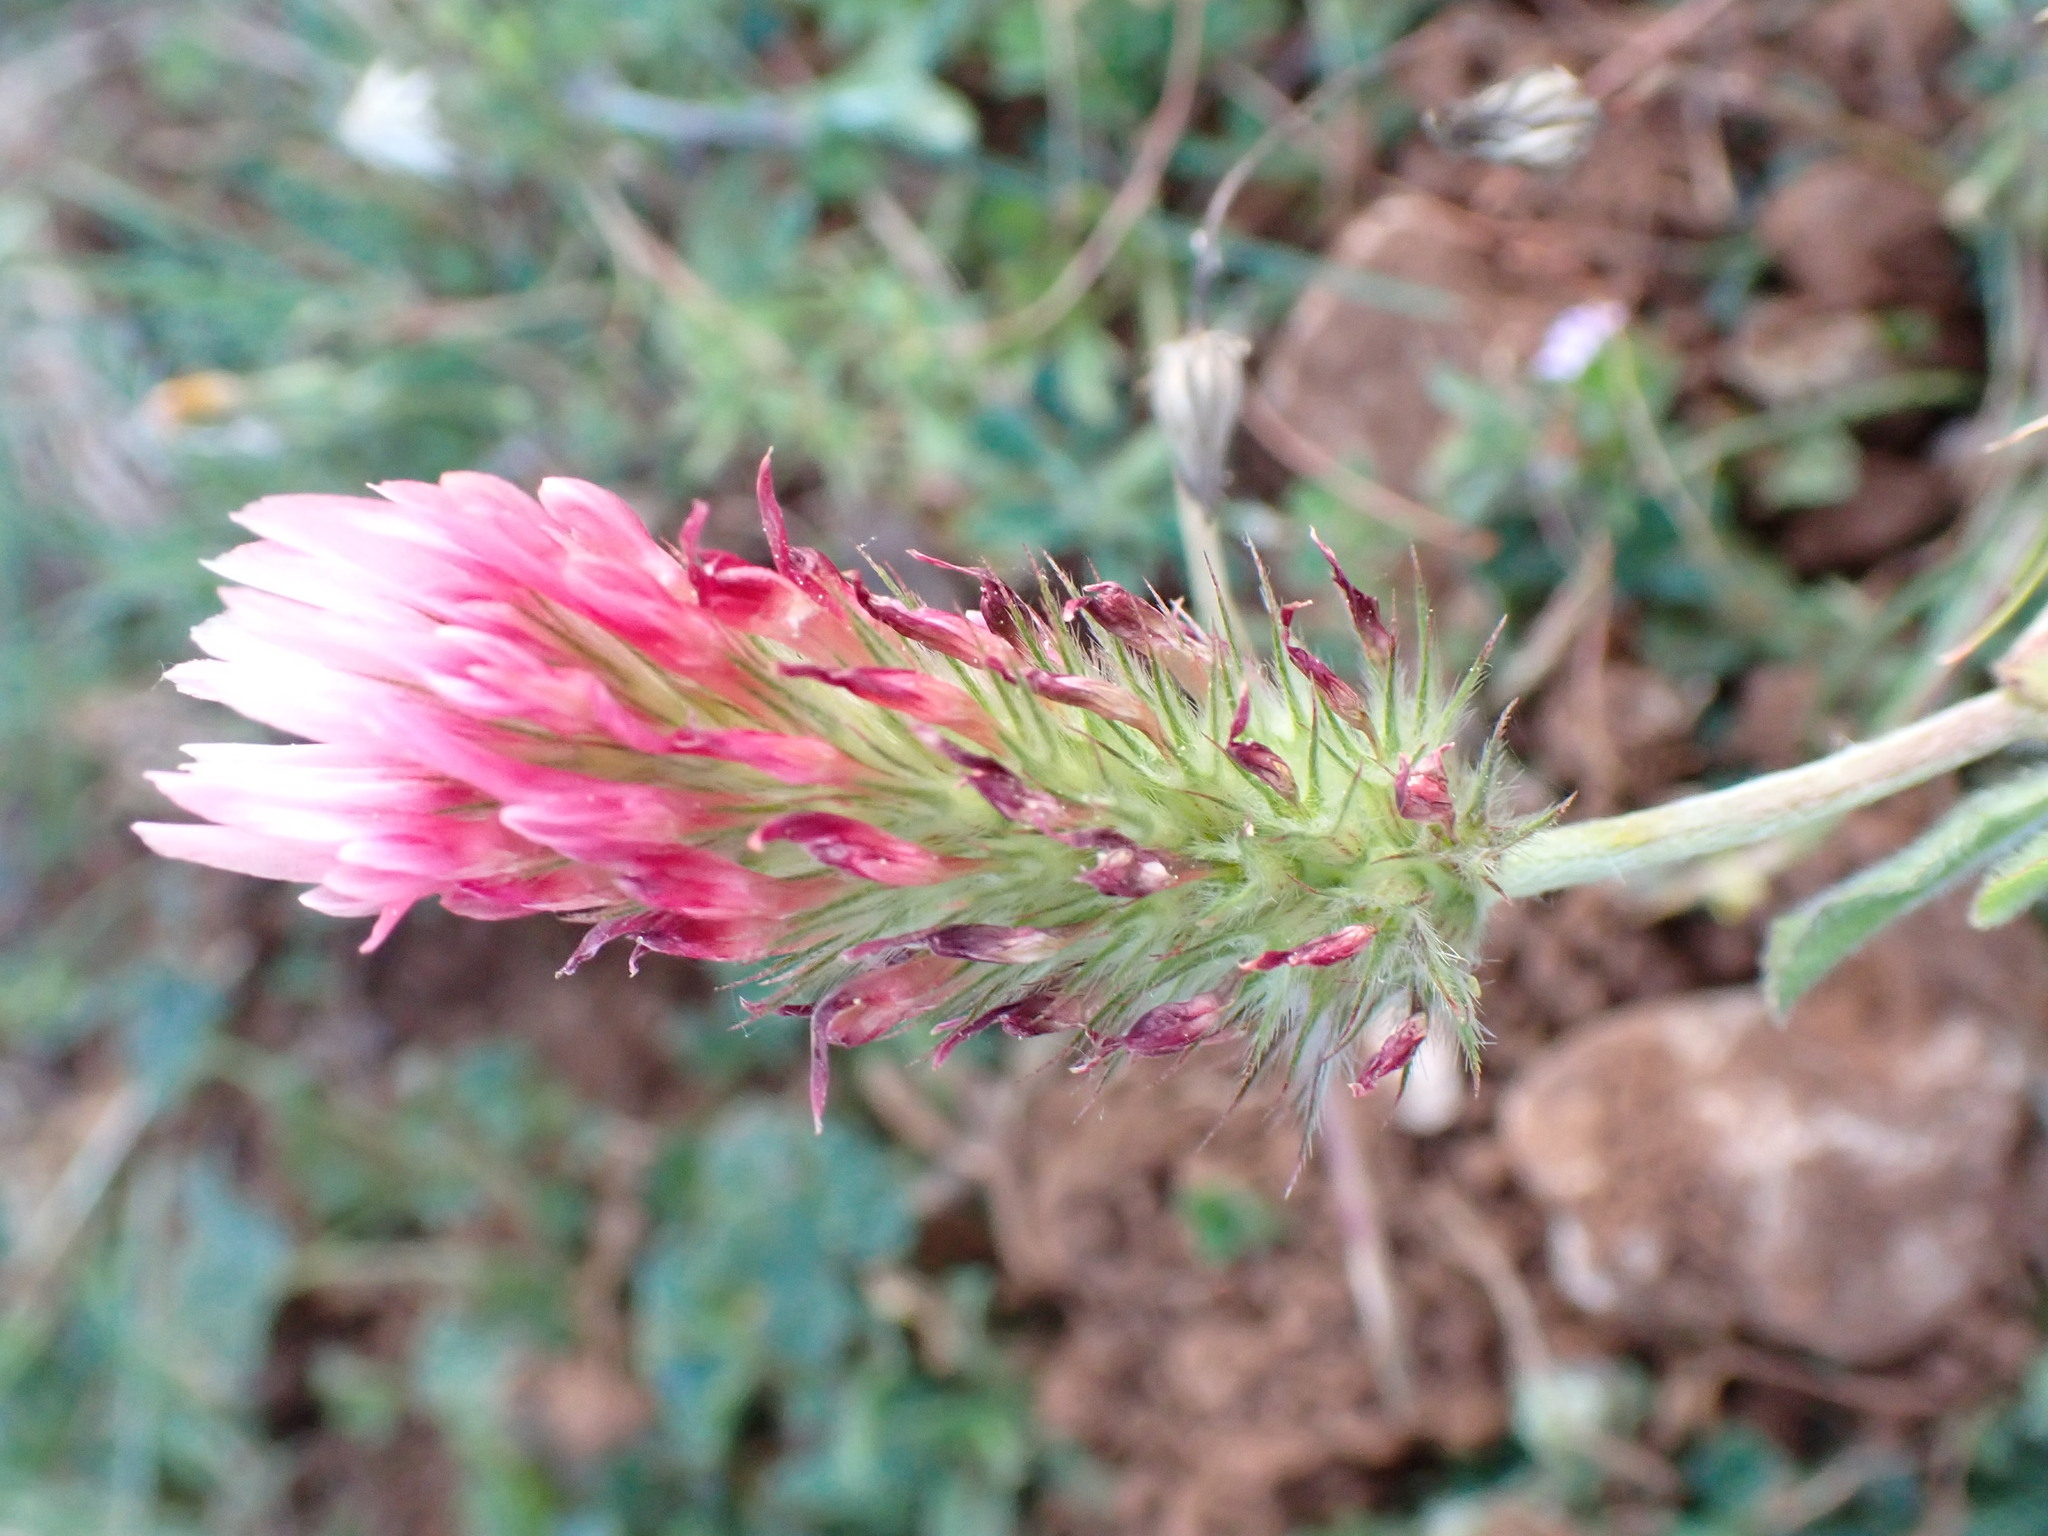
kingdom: Plantae
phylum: Tracheophyta
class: Magnoliopsida
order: Fabales
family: Fabaceae
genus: Trifolium
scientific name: Trifolium incarnatum
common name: Crimson clover
